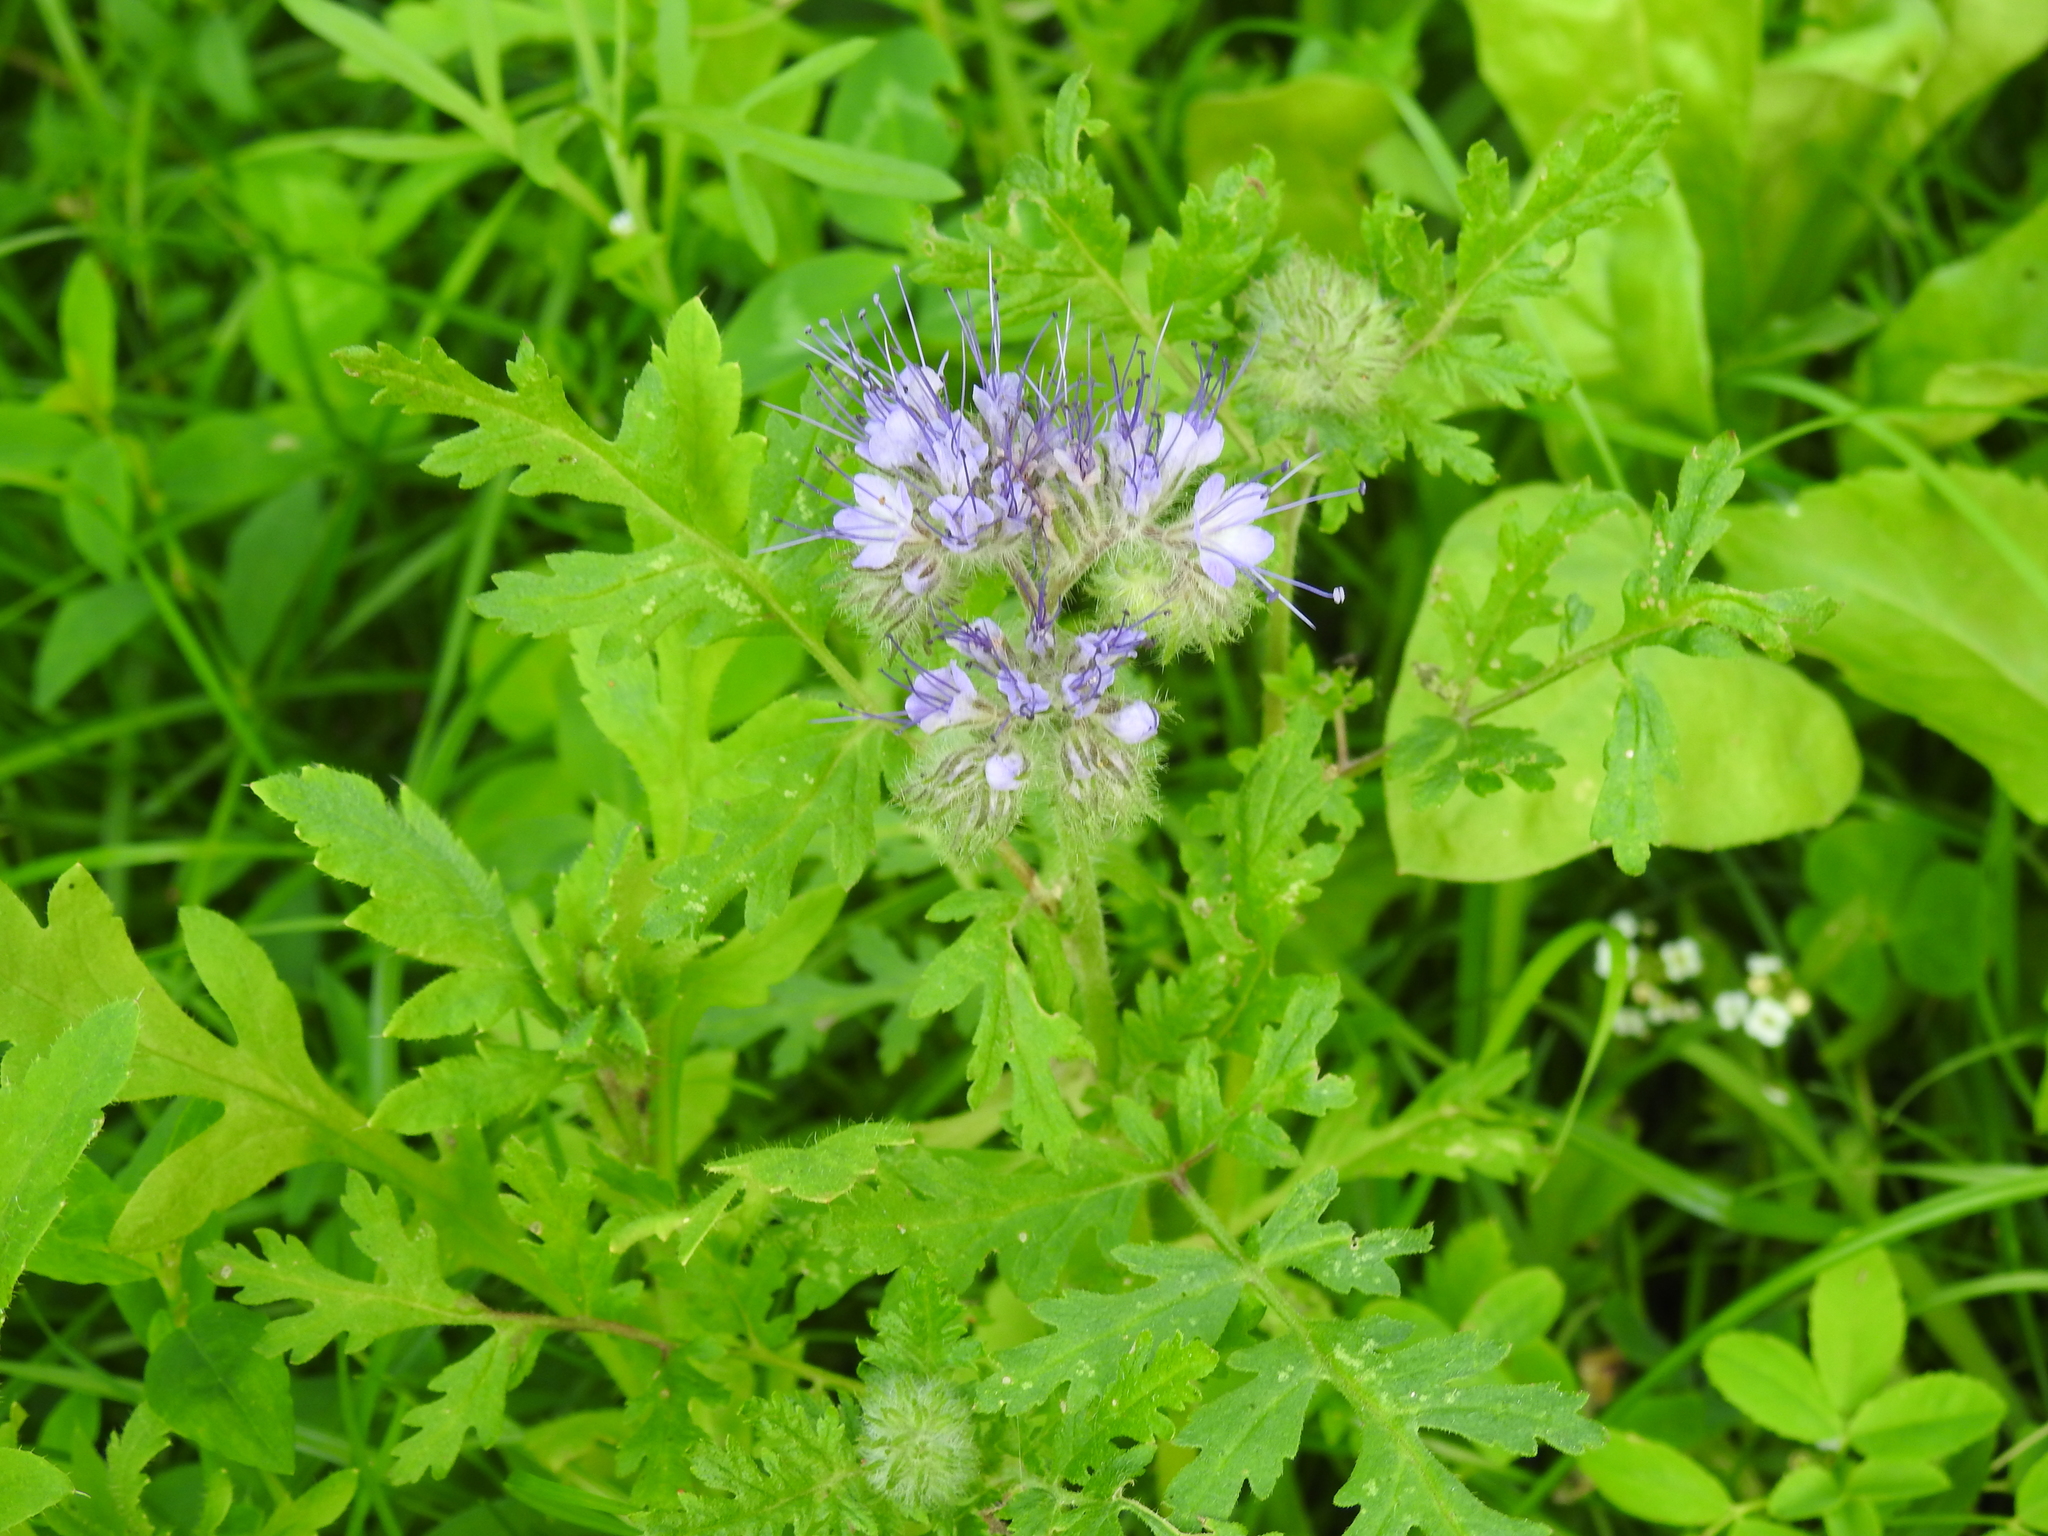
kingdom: Plantae
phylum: Tracheophyta
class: Magnoliopsida
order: Boraginales
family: Hydrophyllaceae
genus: Phacelia
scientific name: Phacelia tanacetifolia
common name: Phacelia
